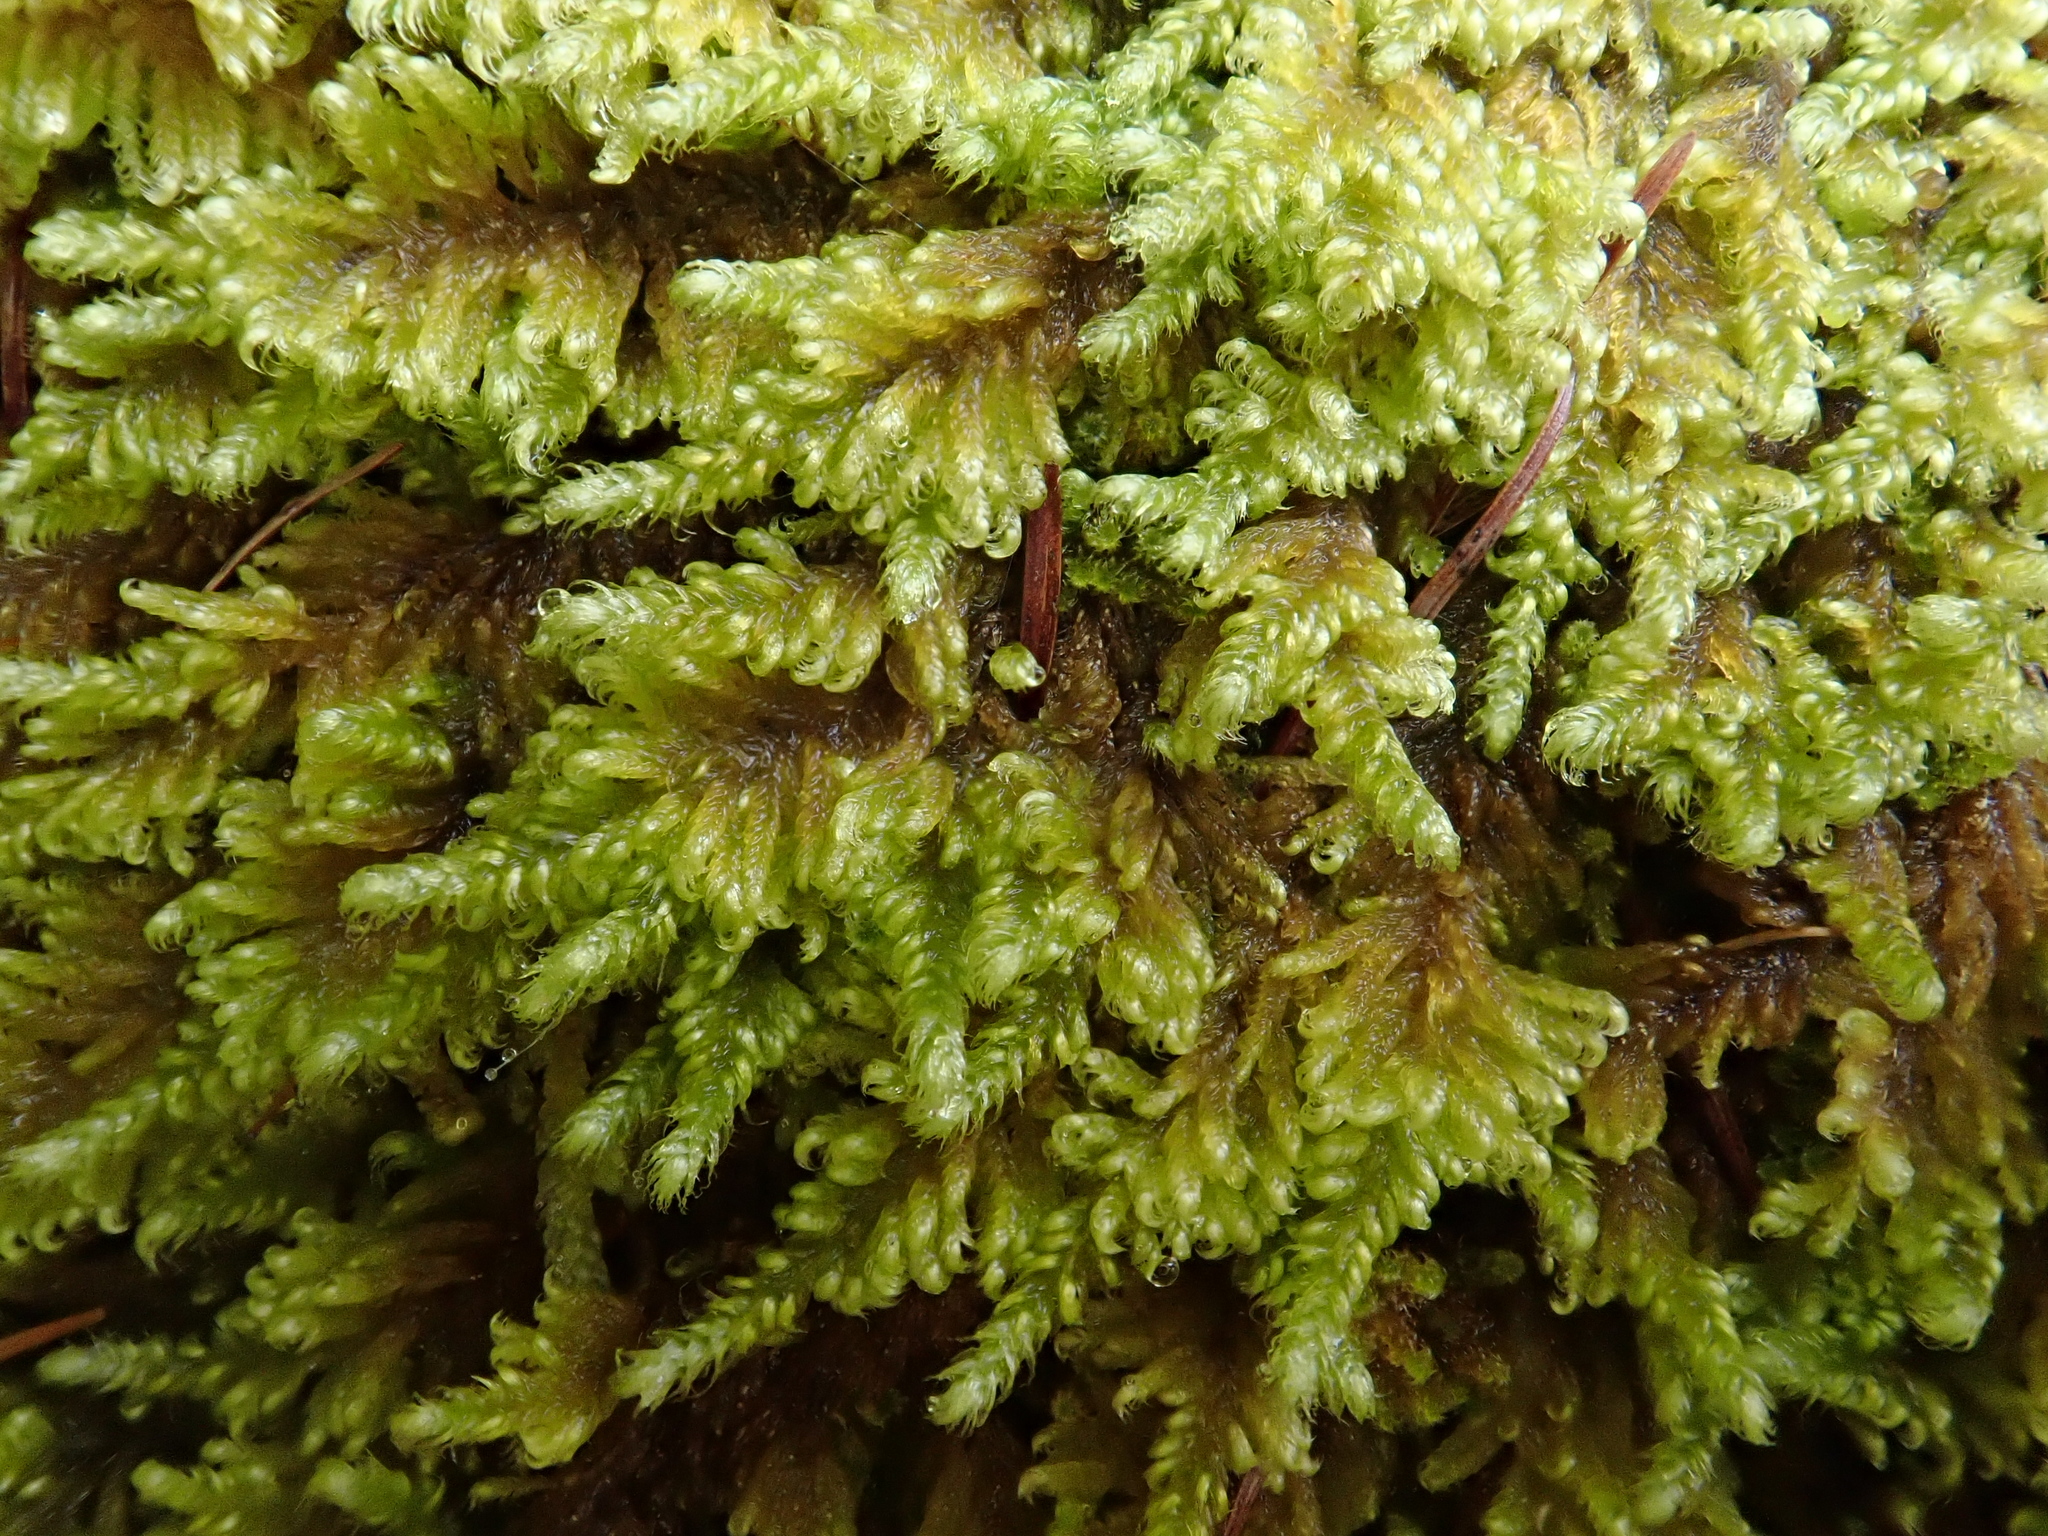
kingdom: Plantae
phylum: Bryophyta
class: Bryopsida
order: Hypnales
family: Myuriaceae
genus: Ctenidium
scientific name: Ctenidium molluscum
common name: Chalk comb-moss
